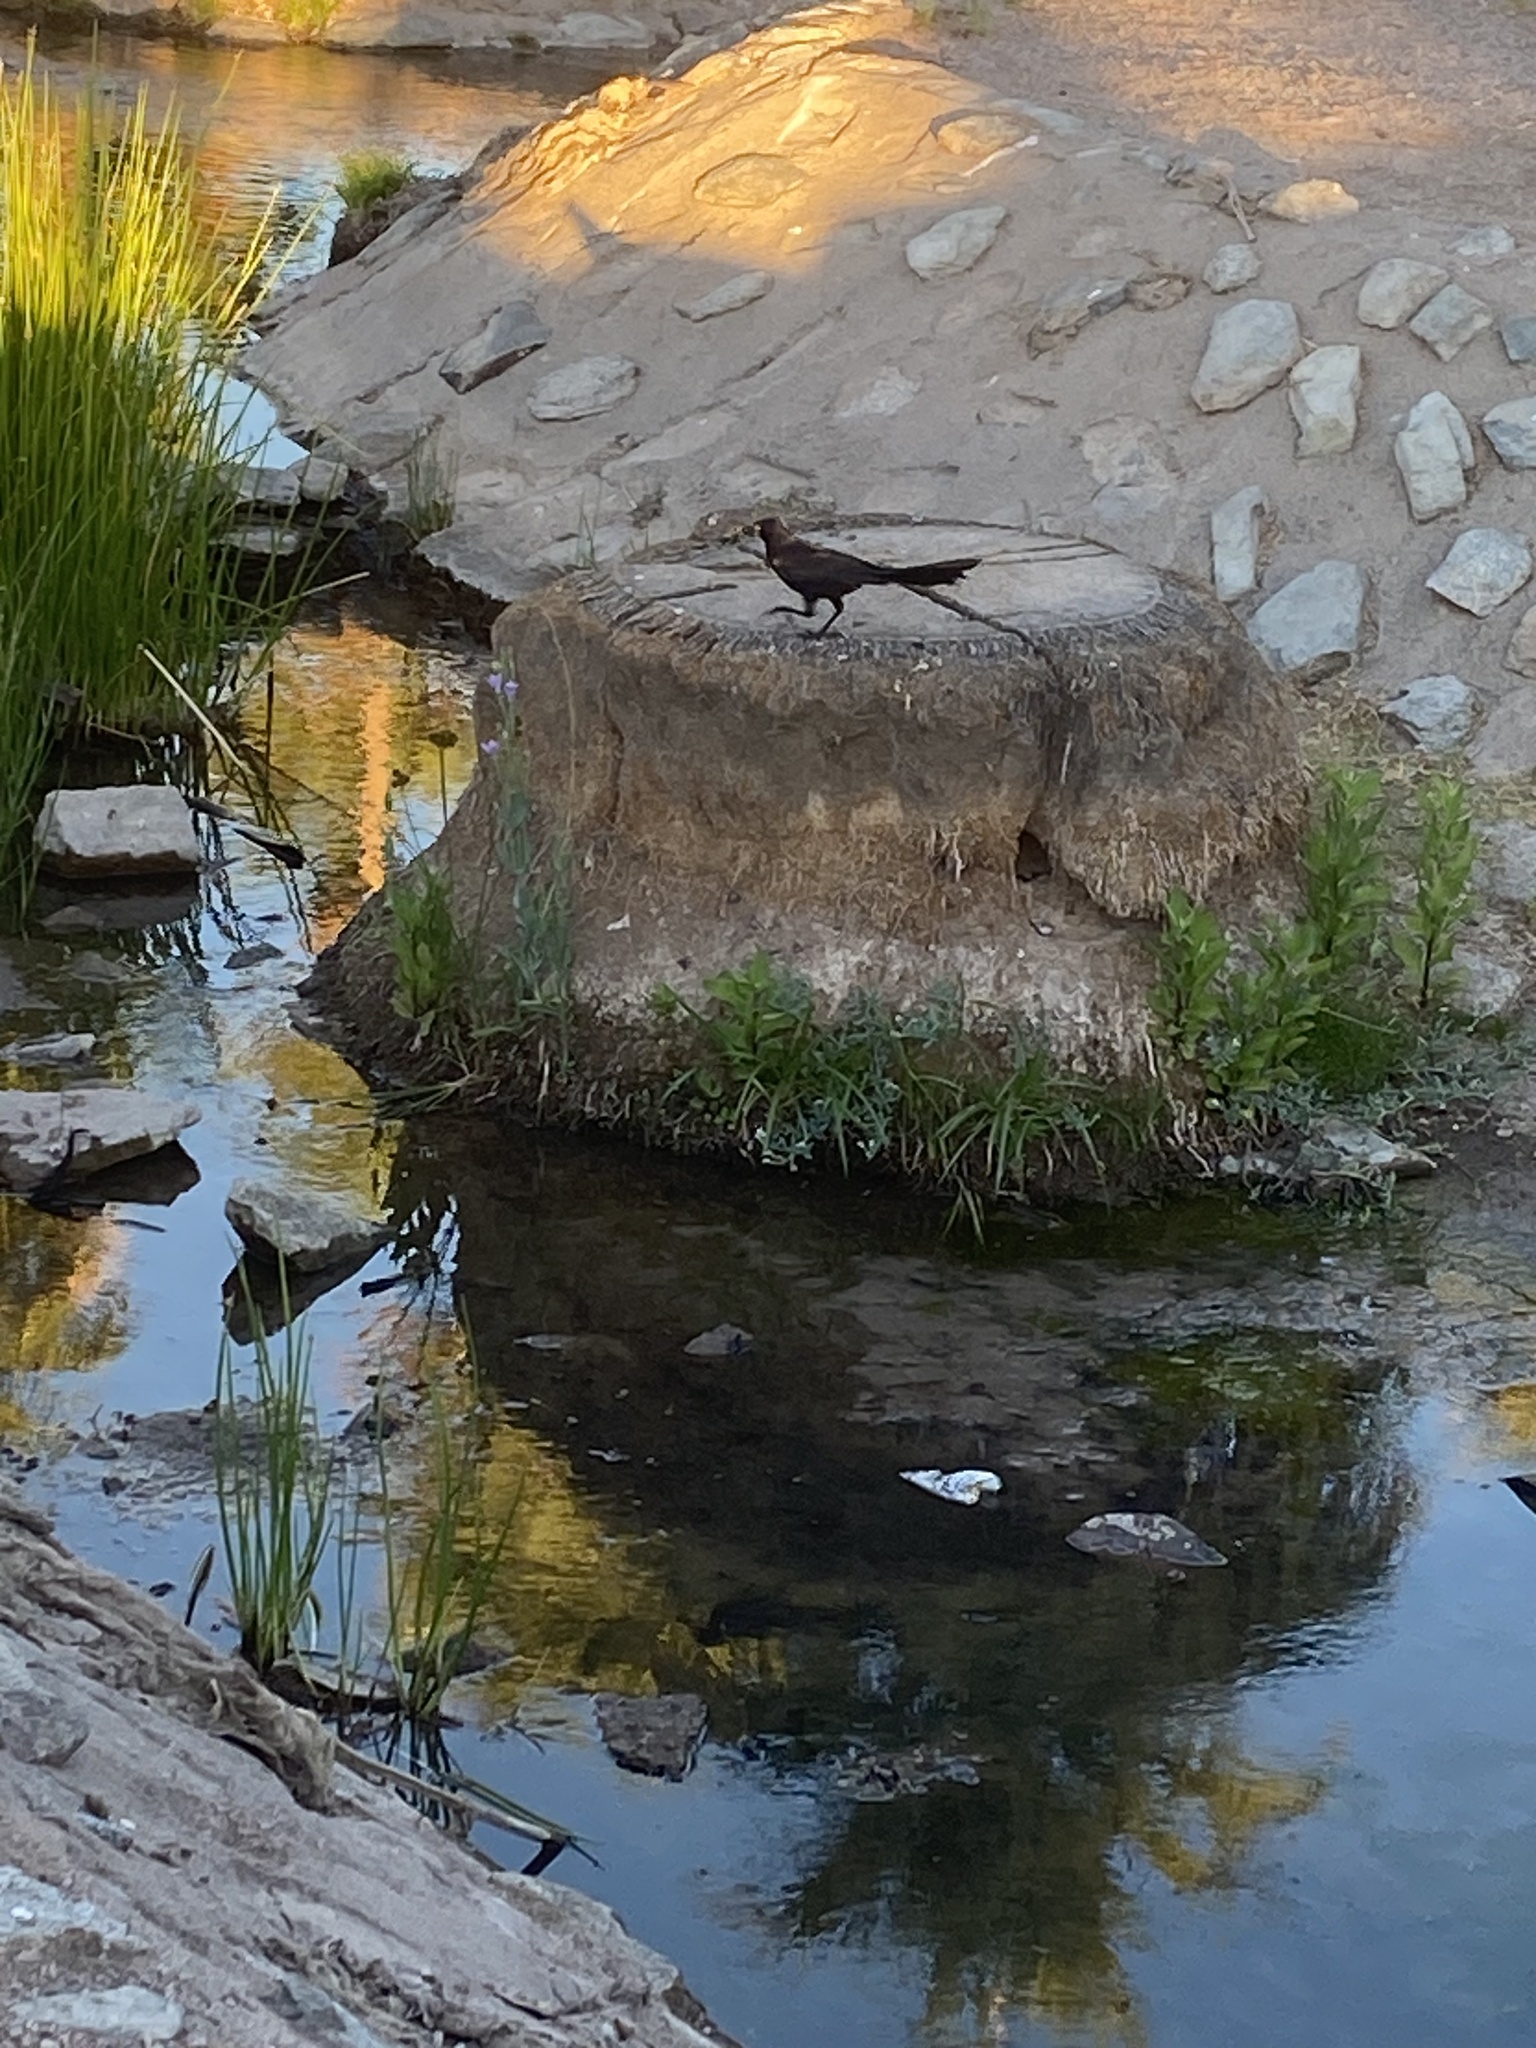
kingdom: Animalia
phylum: Chordata
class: Aves
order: Passeriformes
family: Icteridae
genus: Quiscalus
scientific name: Quiscalus mexicanus
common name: Great-tailed grackle
